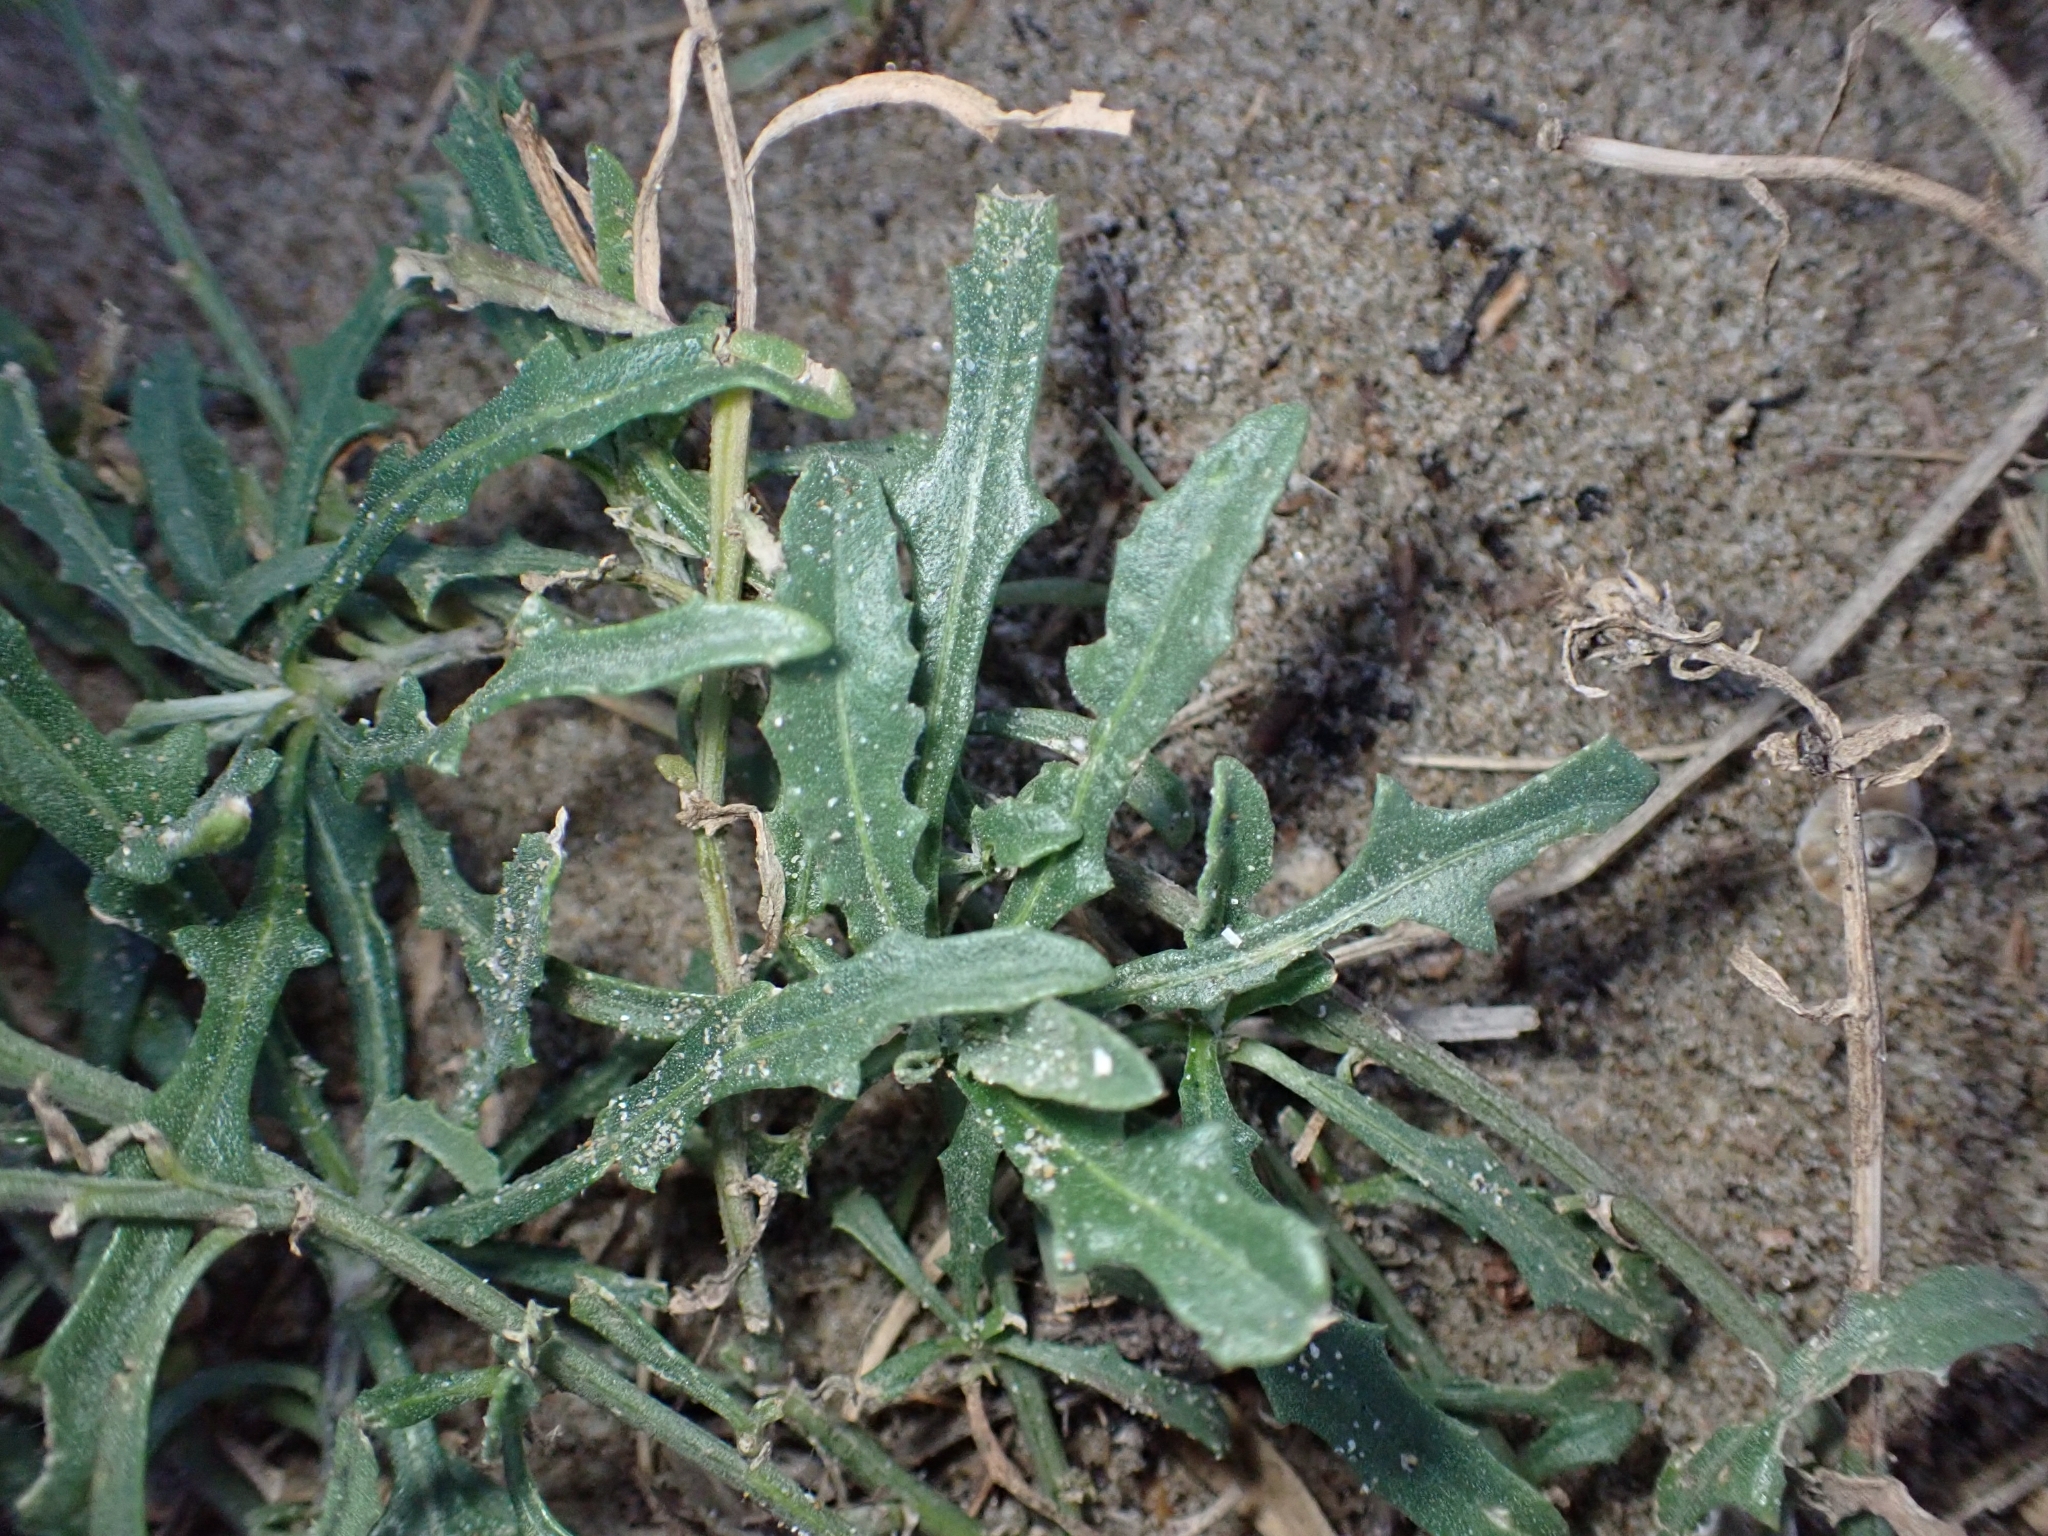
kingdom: Plantae
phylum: Tracheophyta
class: Magnoliopsida
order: Asterales
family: Asteraceae
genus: Centaurea
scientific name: Centaurea aspera
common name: Rough star-thistle
